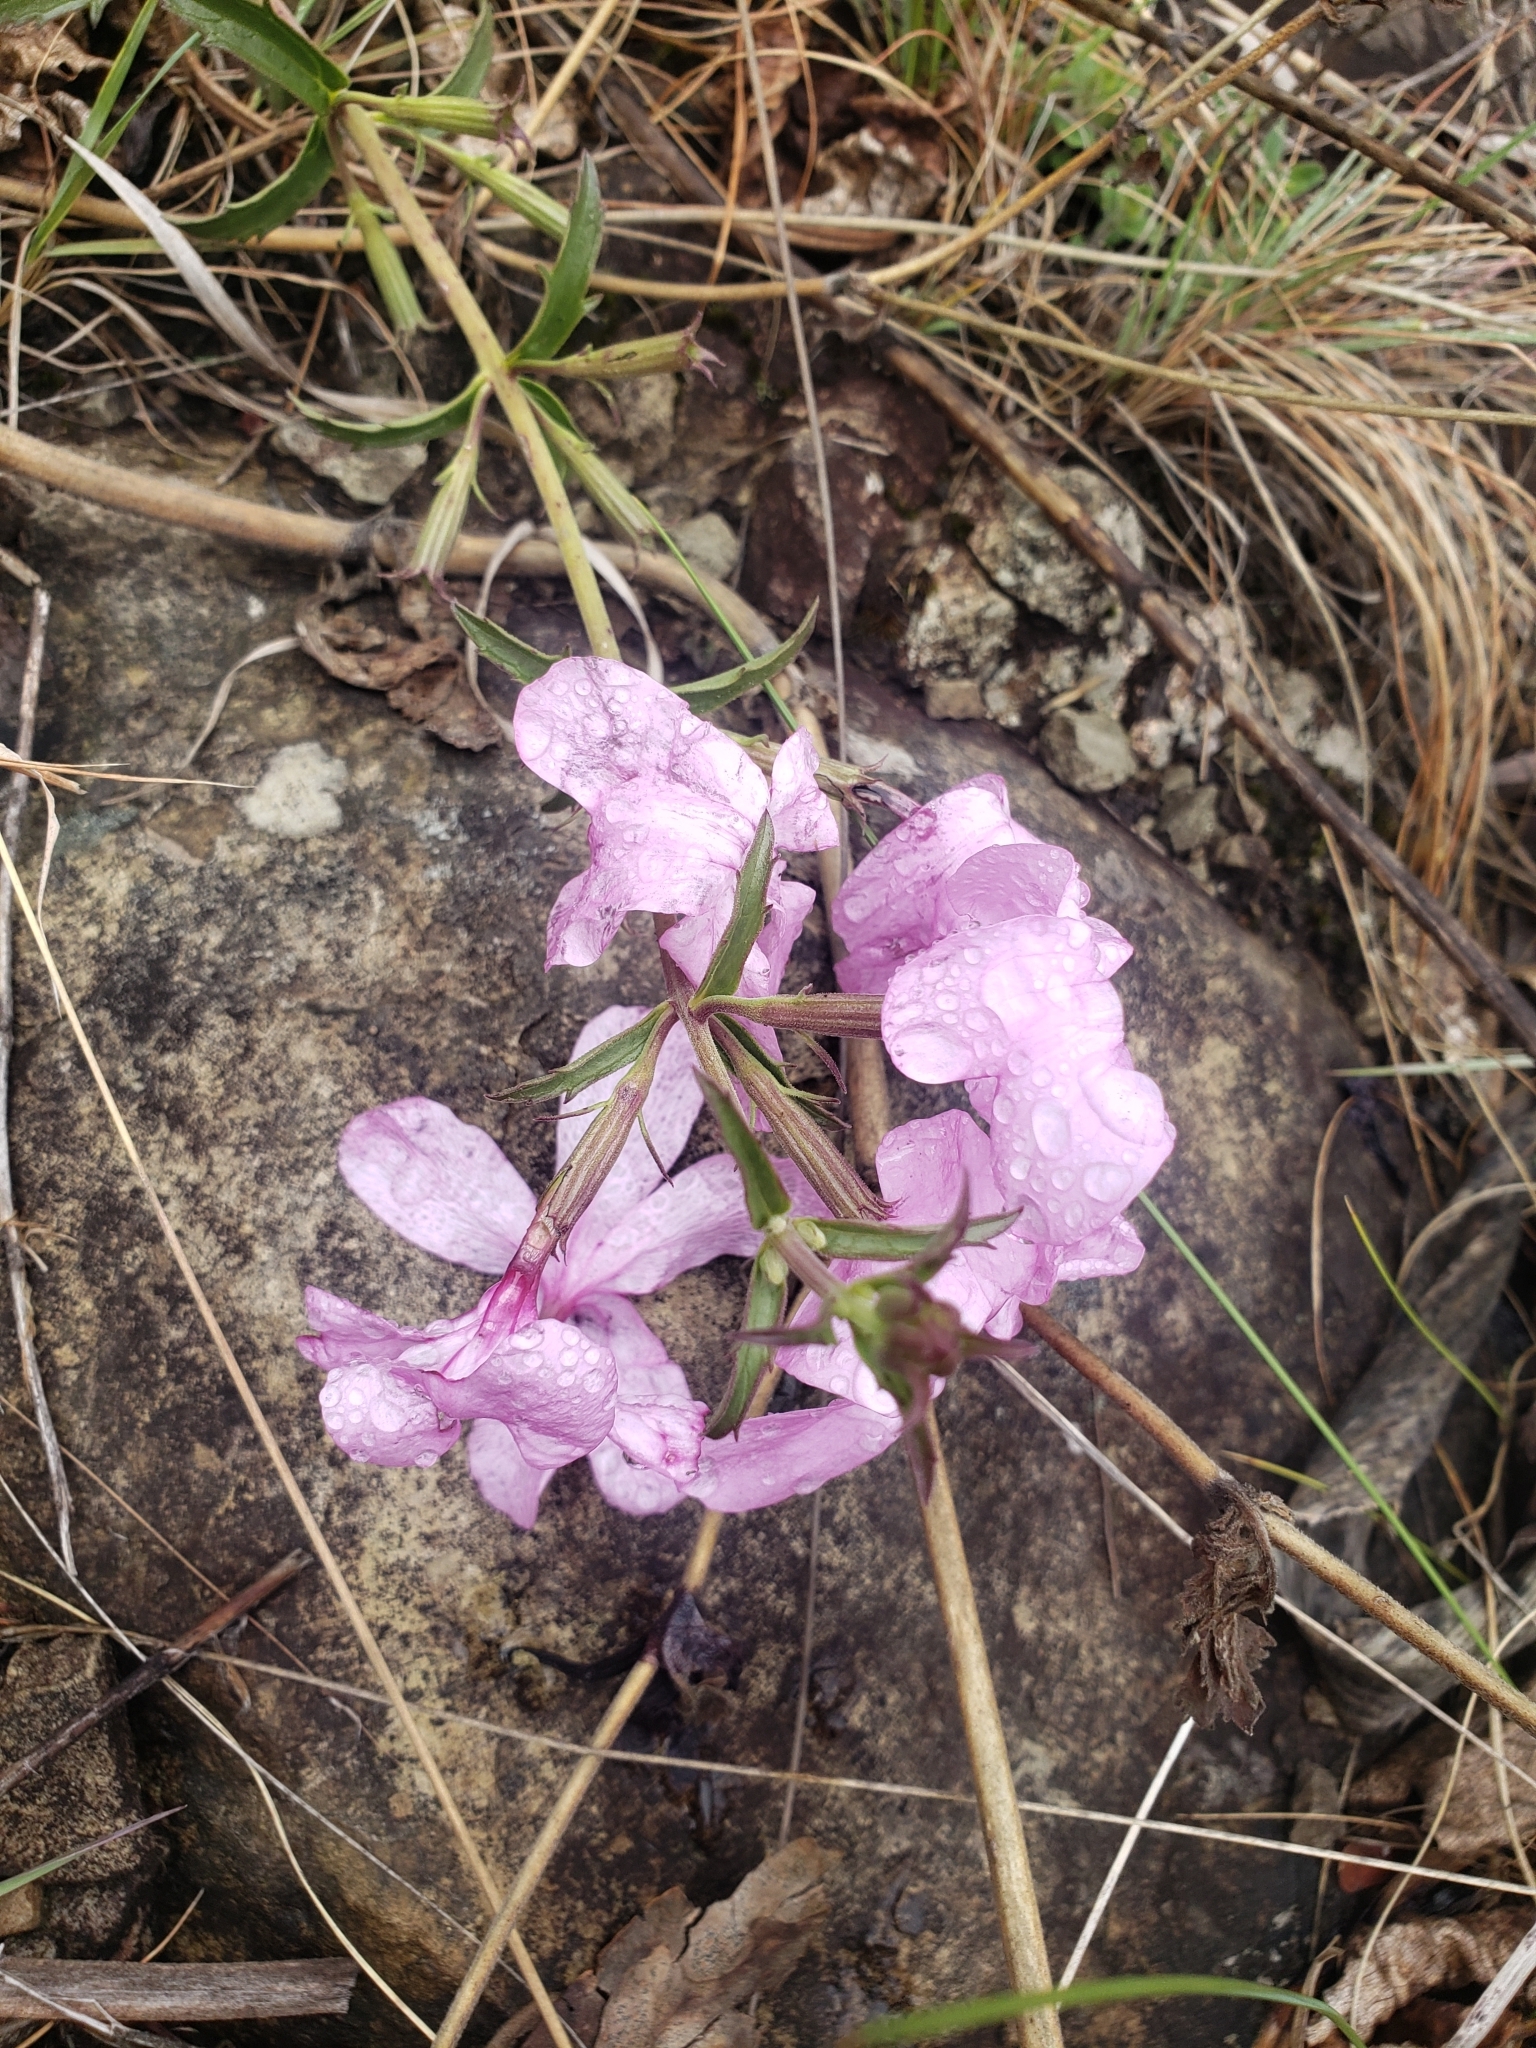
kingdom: Plantae
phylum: Tracheophyta
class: Magnoliopsida
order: Lamiales
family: Orobanchaceae
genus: Cycnium
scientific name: Cycnium racemosum
